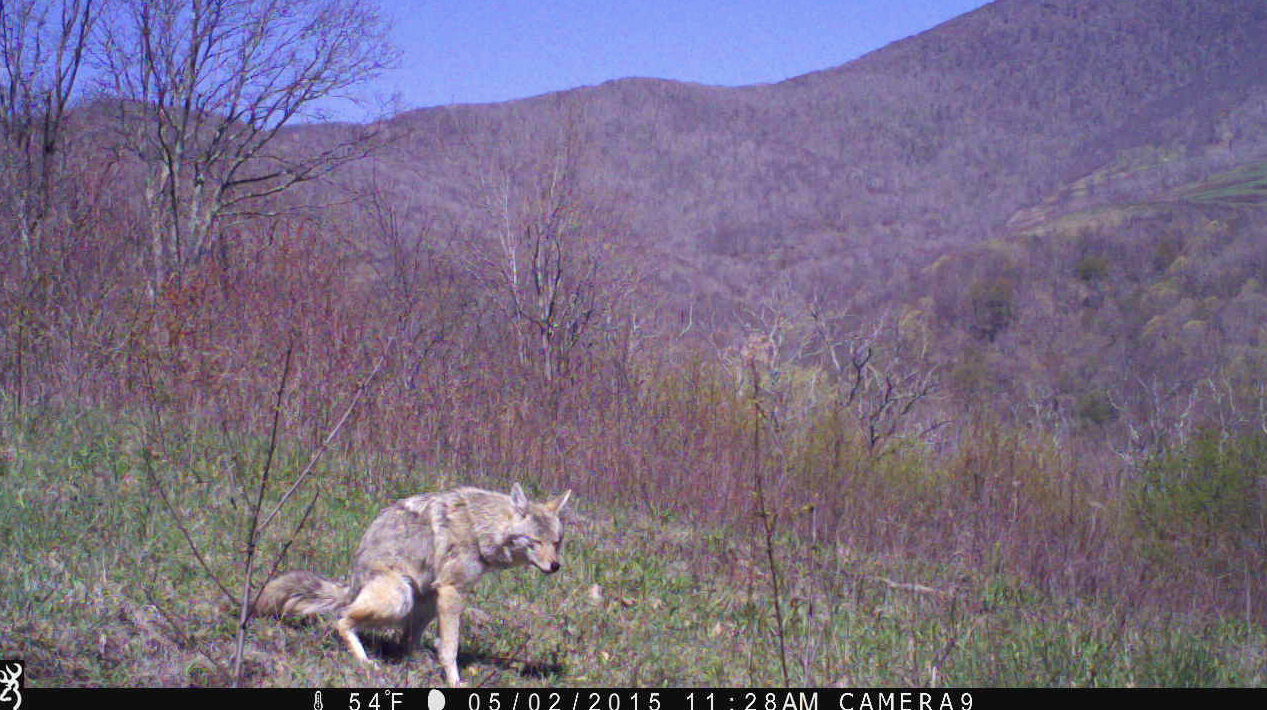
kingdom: Animalia
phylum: Chordata
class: Mammalia
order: Carnivora
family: Canidae
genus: Canis
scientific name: Canis latrans
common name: Coyote
